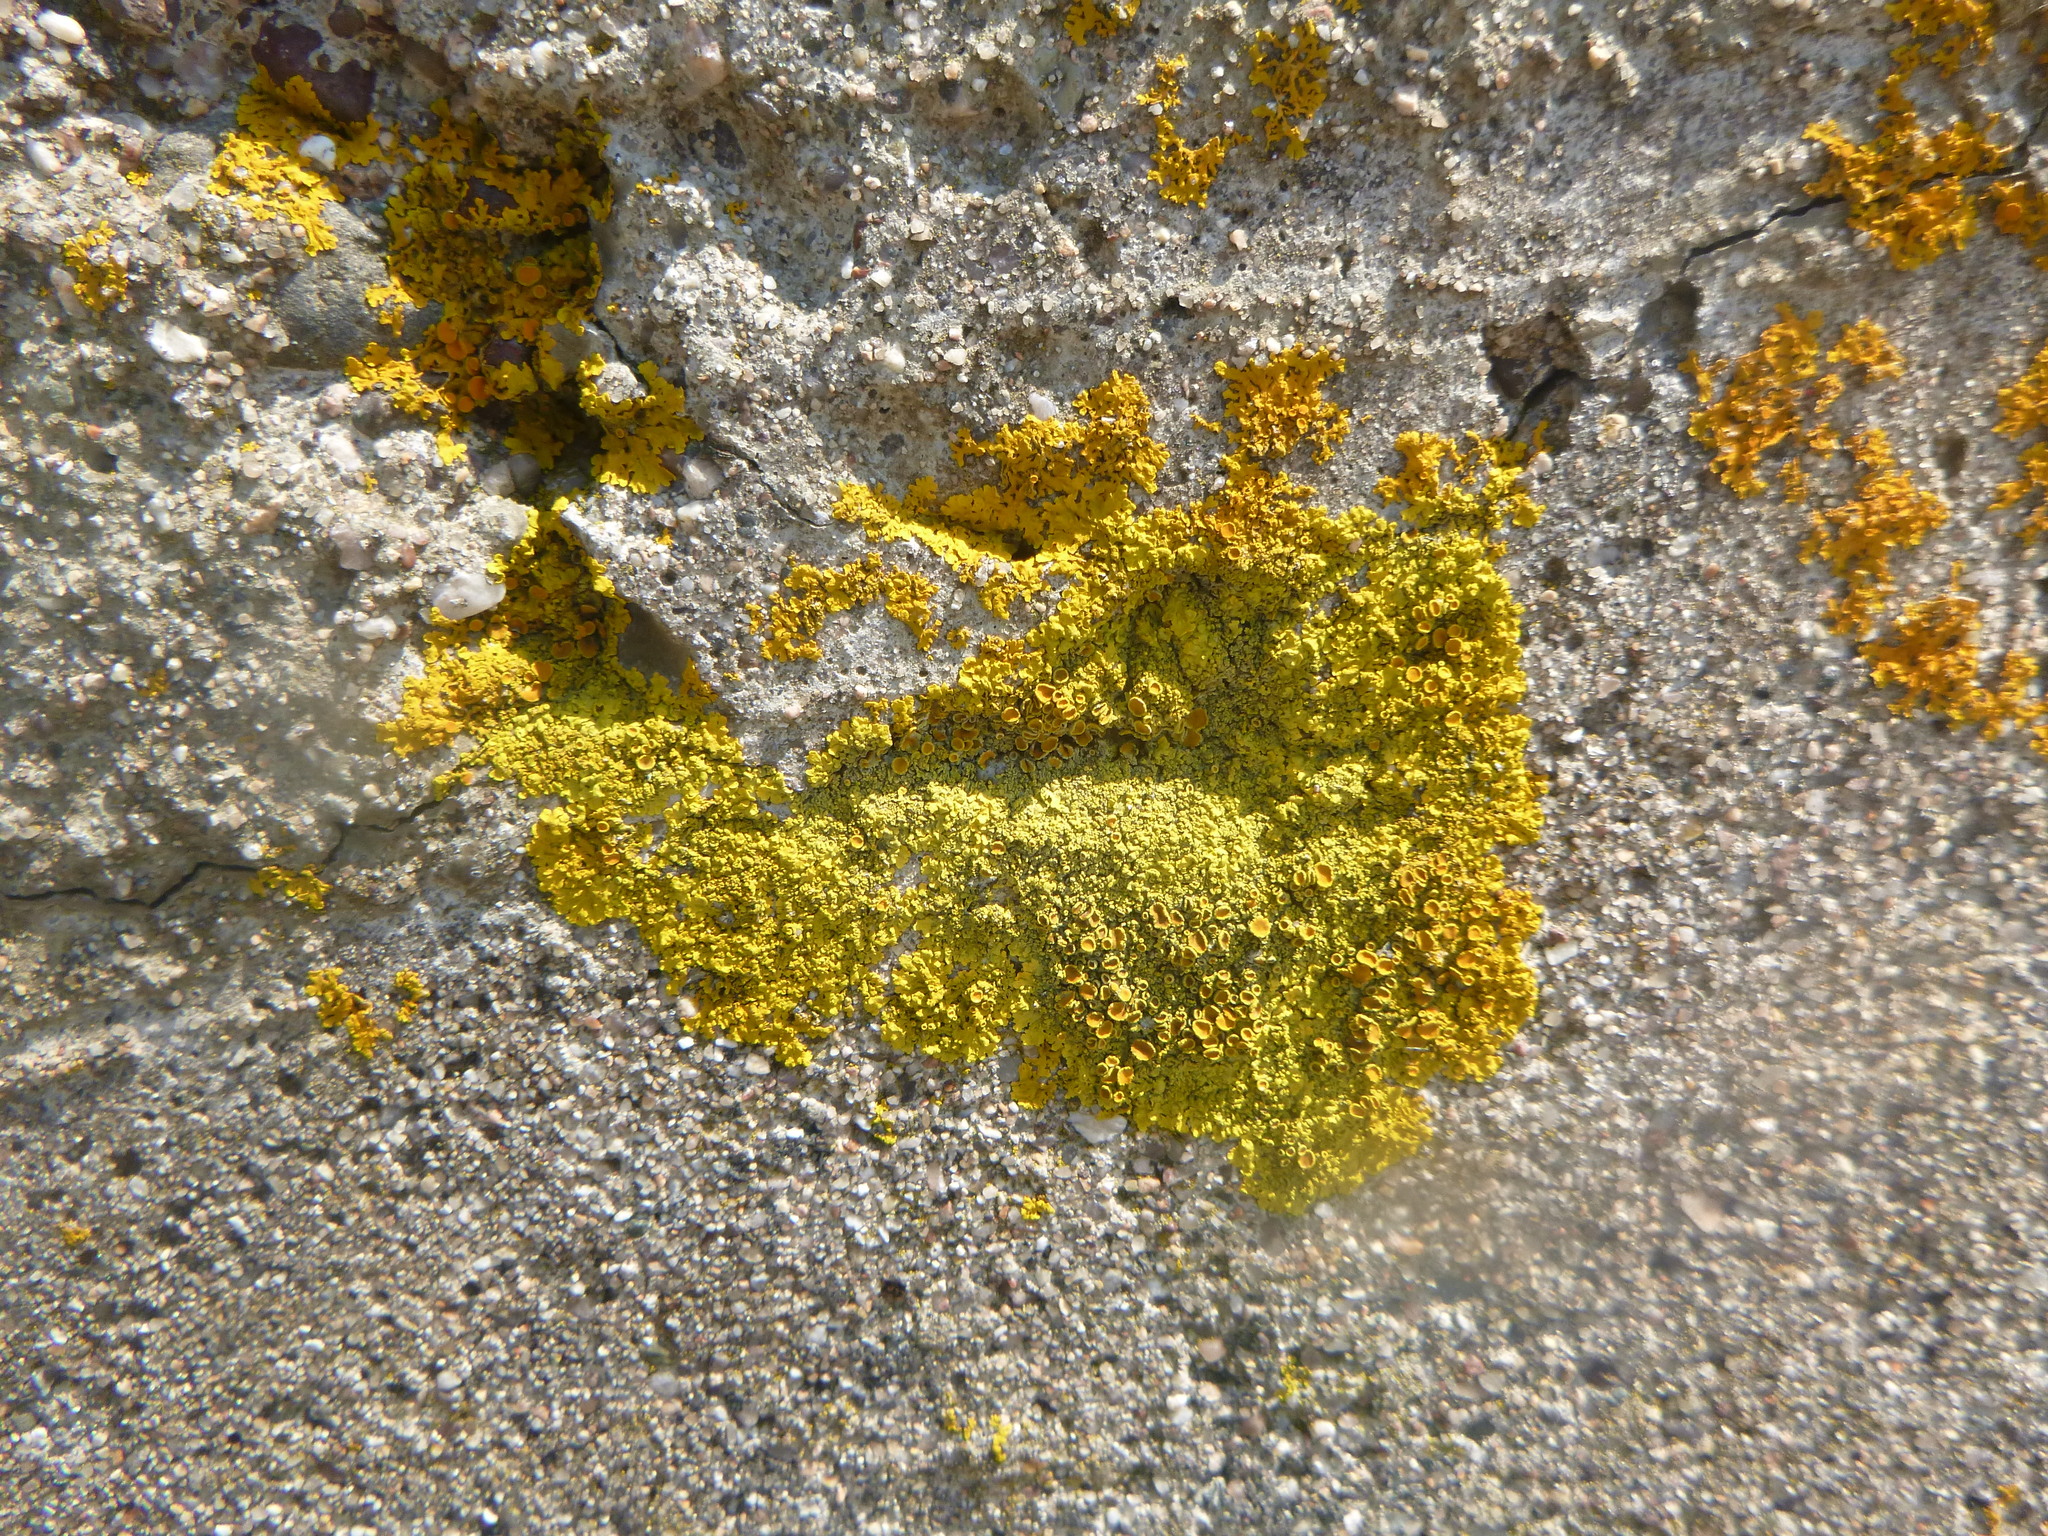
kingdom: Fungi
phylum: Ascomycota
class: Lecanoromycetes
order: Teloschistales
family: Teloschistaceae
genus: Xanthoria
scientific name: Xanthoria parietina
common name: Common orange lichen
